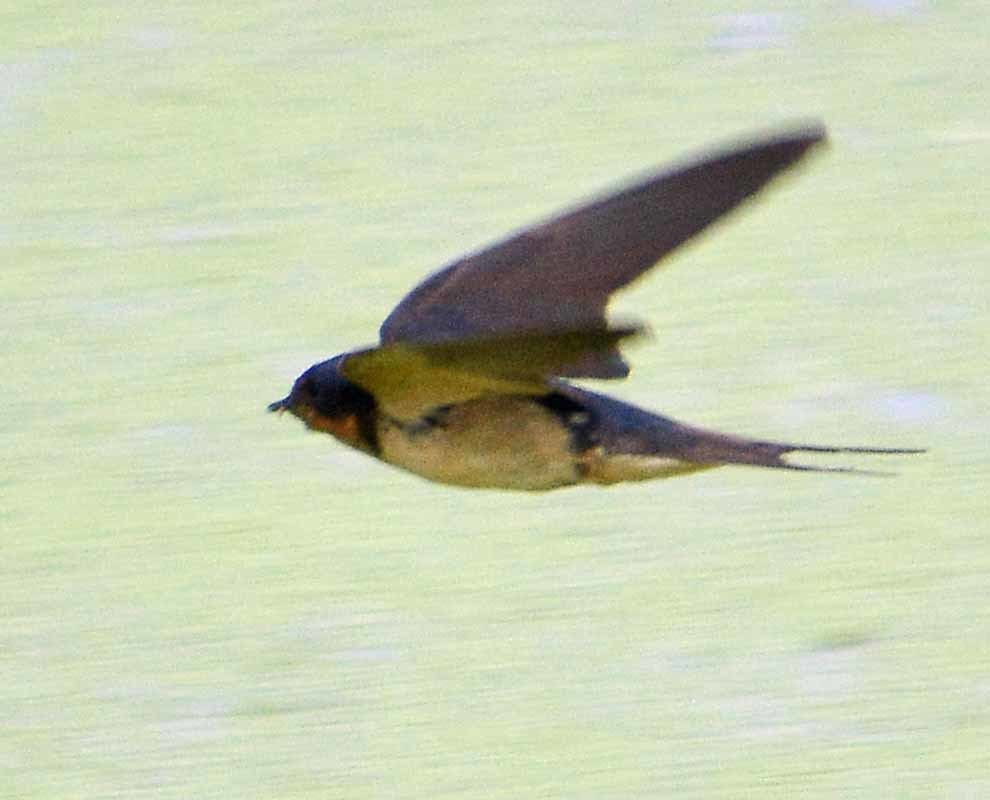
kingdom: Animalia
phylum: Chordata
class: Aves
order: Passeriformes
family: Hirundinidae
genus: Hirundo
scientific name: Hirundo rustica
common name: Barn swallow
